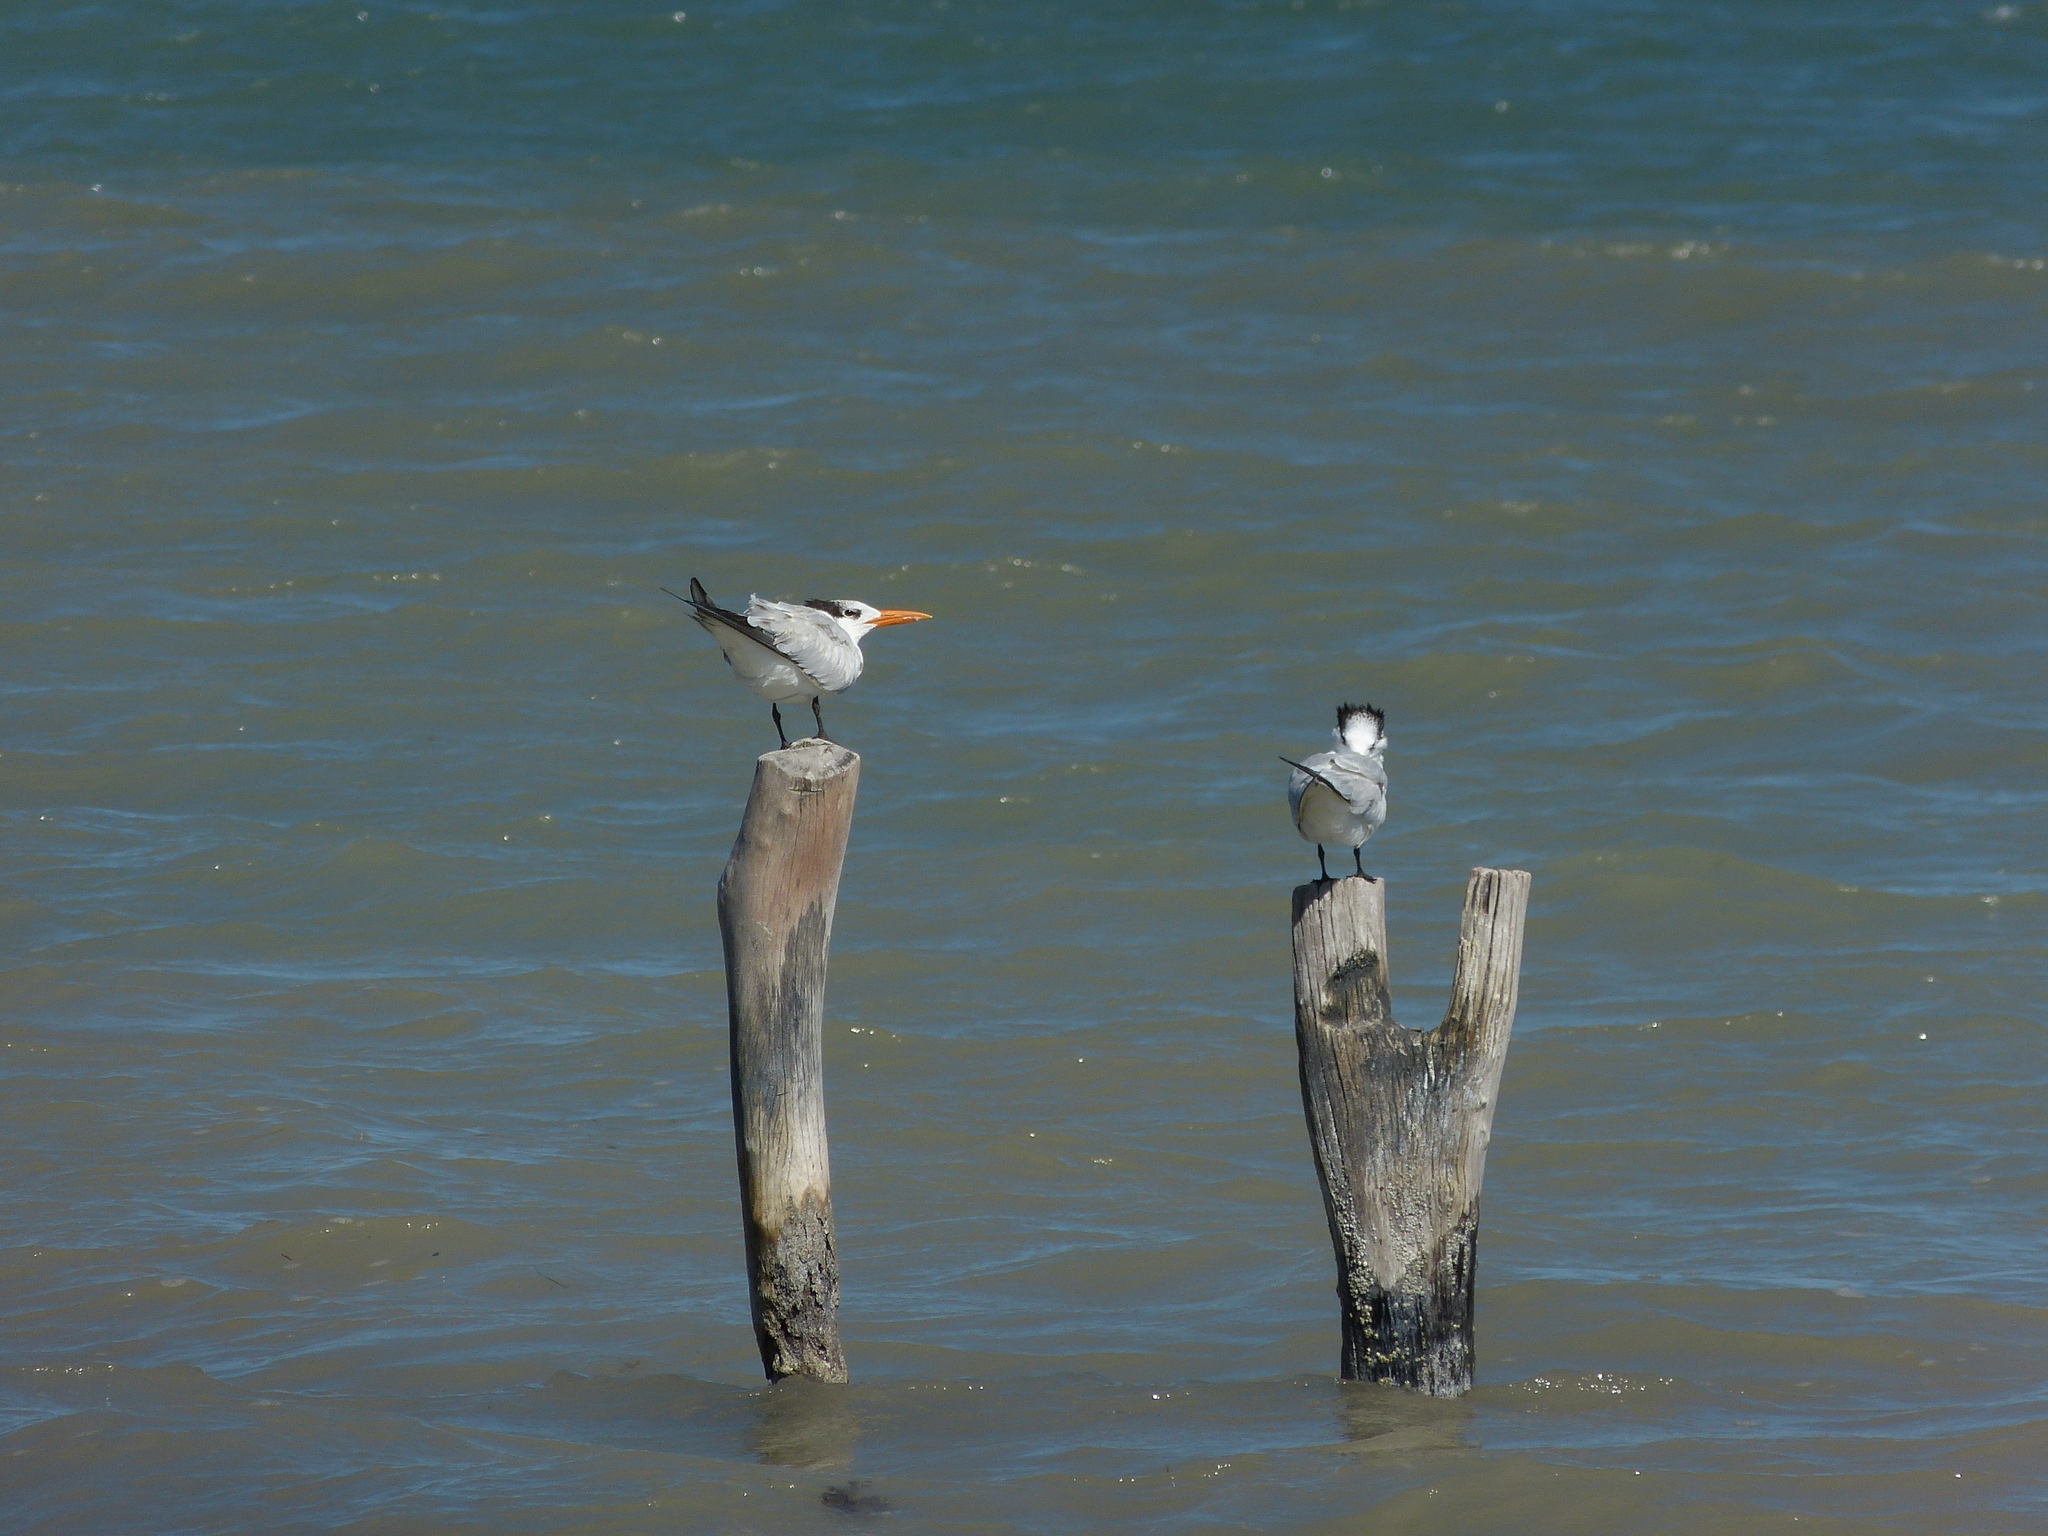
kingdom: Animalia
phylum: Chordata
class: Aves
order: Charadriiformes
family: Laridae
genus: Thalasseus
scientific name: Thalasseus maximus
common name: Royal tern
